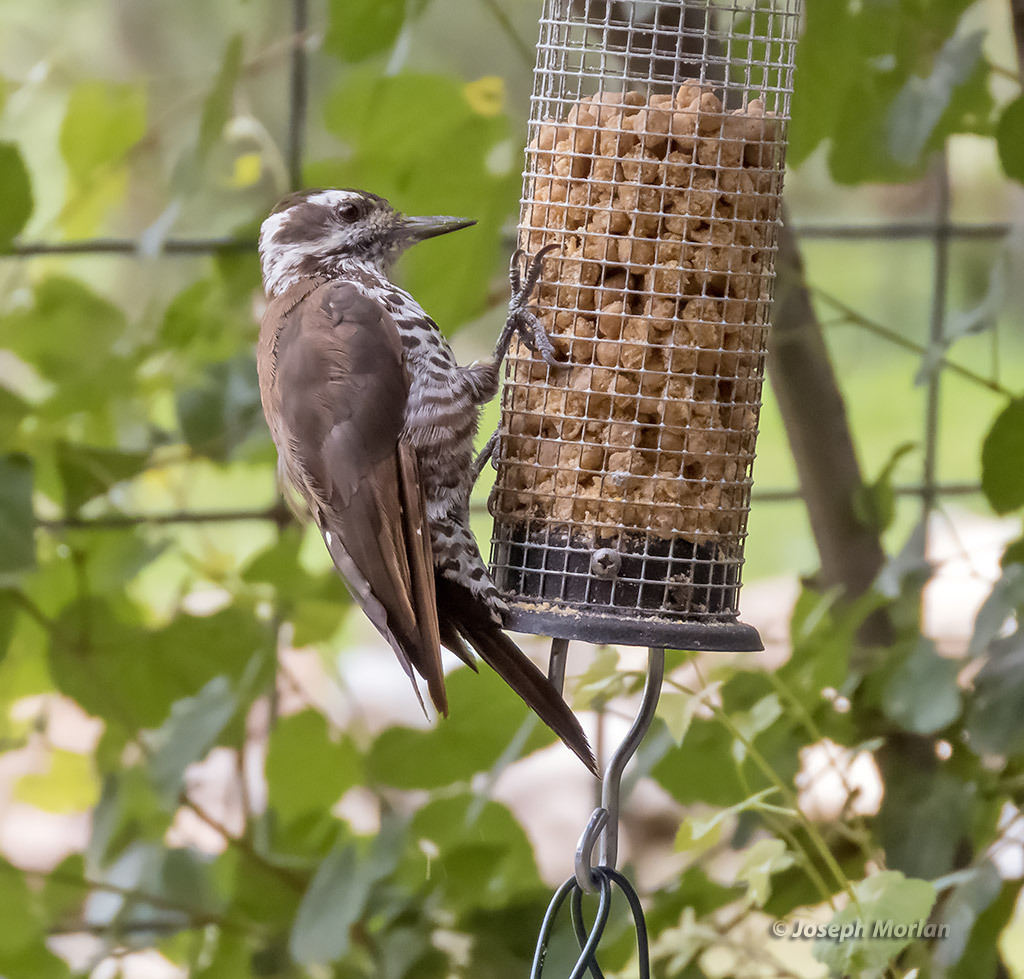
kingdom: Animalia
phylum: Chordata
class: Aves
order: Piciformes
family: Picidae
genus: Leuconotopicus
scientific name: Leuconotopicus arizonae
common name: Arizona woodpecker
